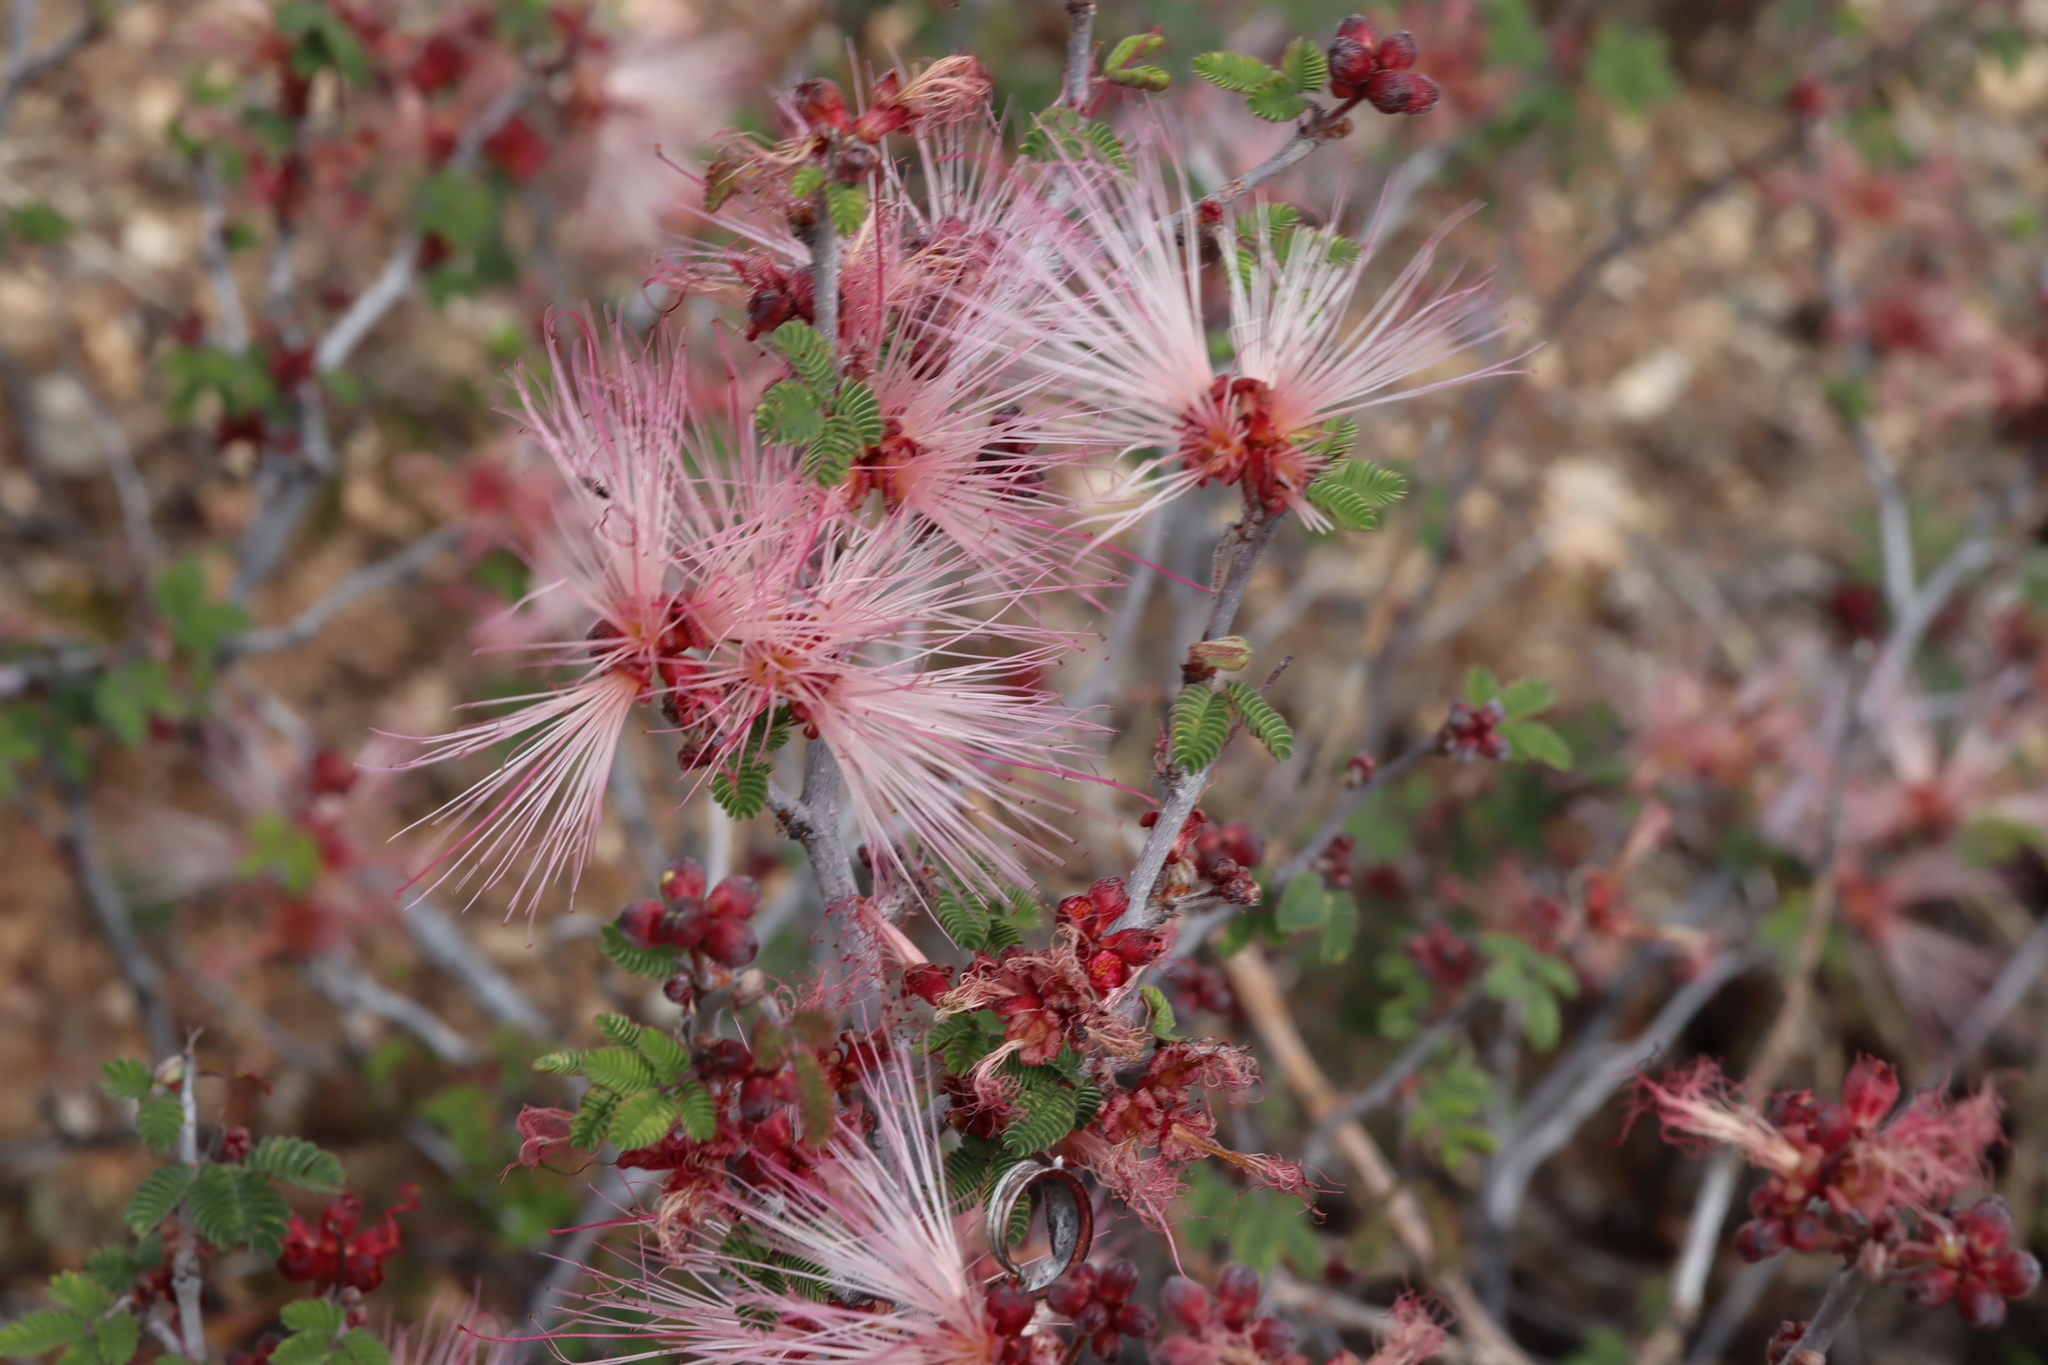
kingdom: Plantae
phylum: Tracheophyta
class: Magnoliopsida
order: Fabales
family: Fabaceae
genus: Calliandra
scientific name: Calliandra eriophylla
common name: Fairy-duster
